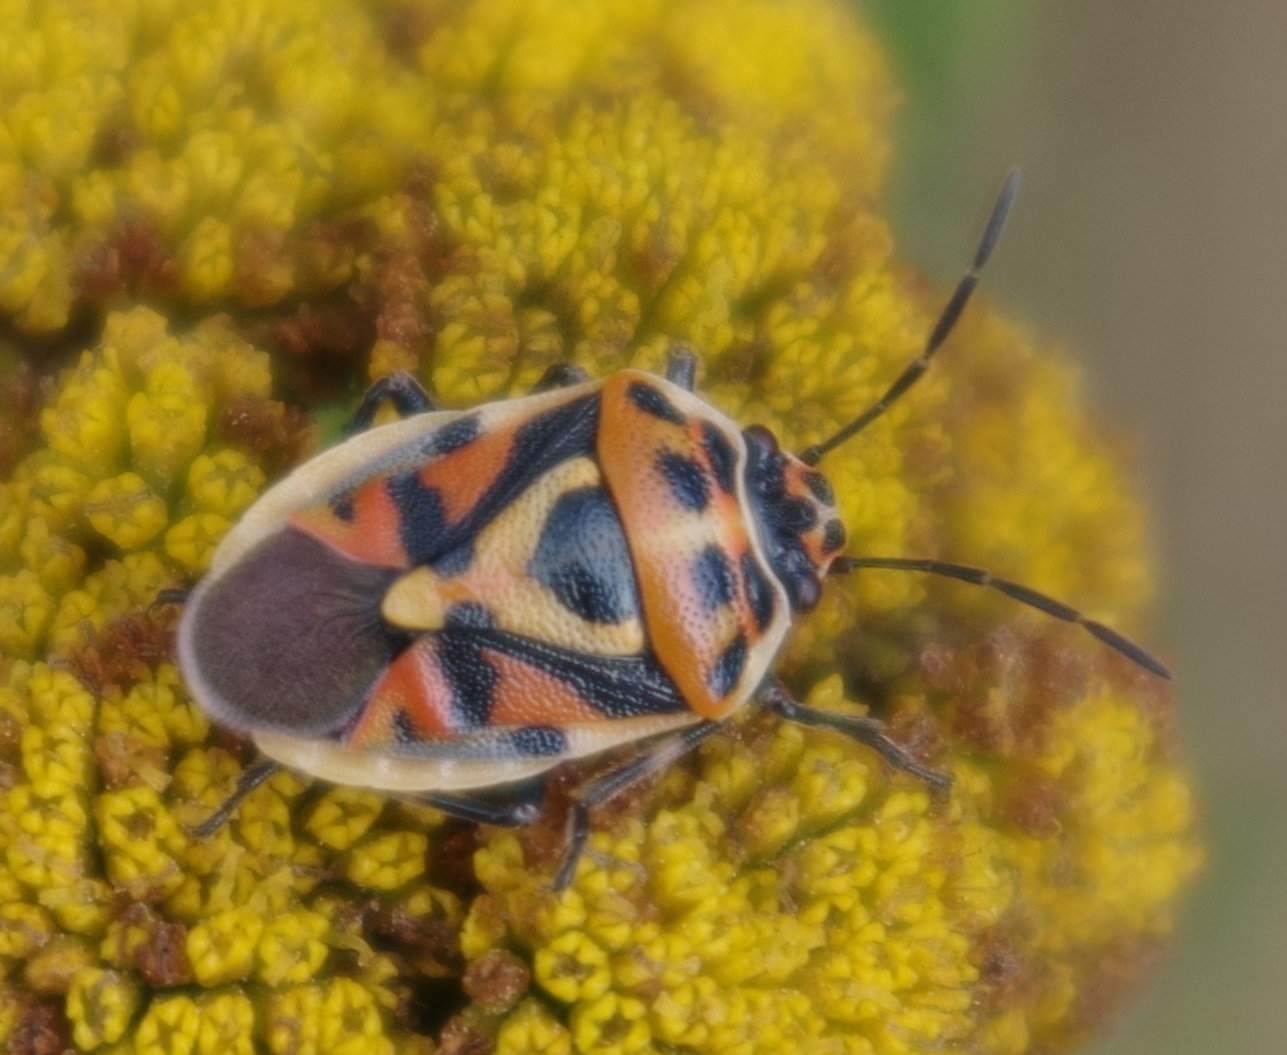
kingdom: Animalia
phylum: Arthropoda
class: Insecta
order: Hemiptera
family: Pentatomidae
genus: Eurydema
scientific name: Eurydema ornata
